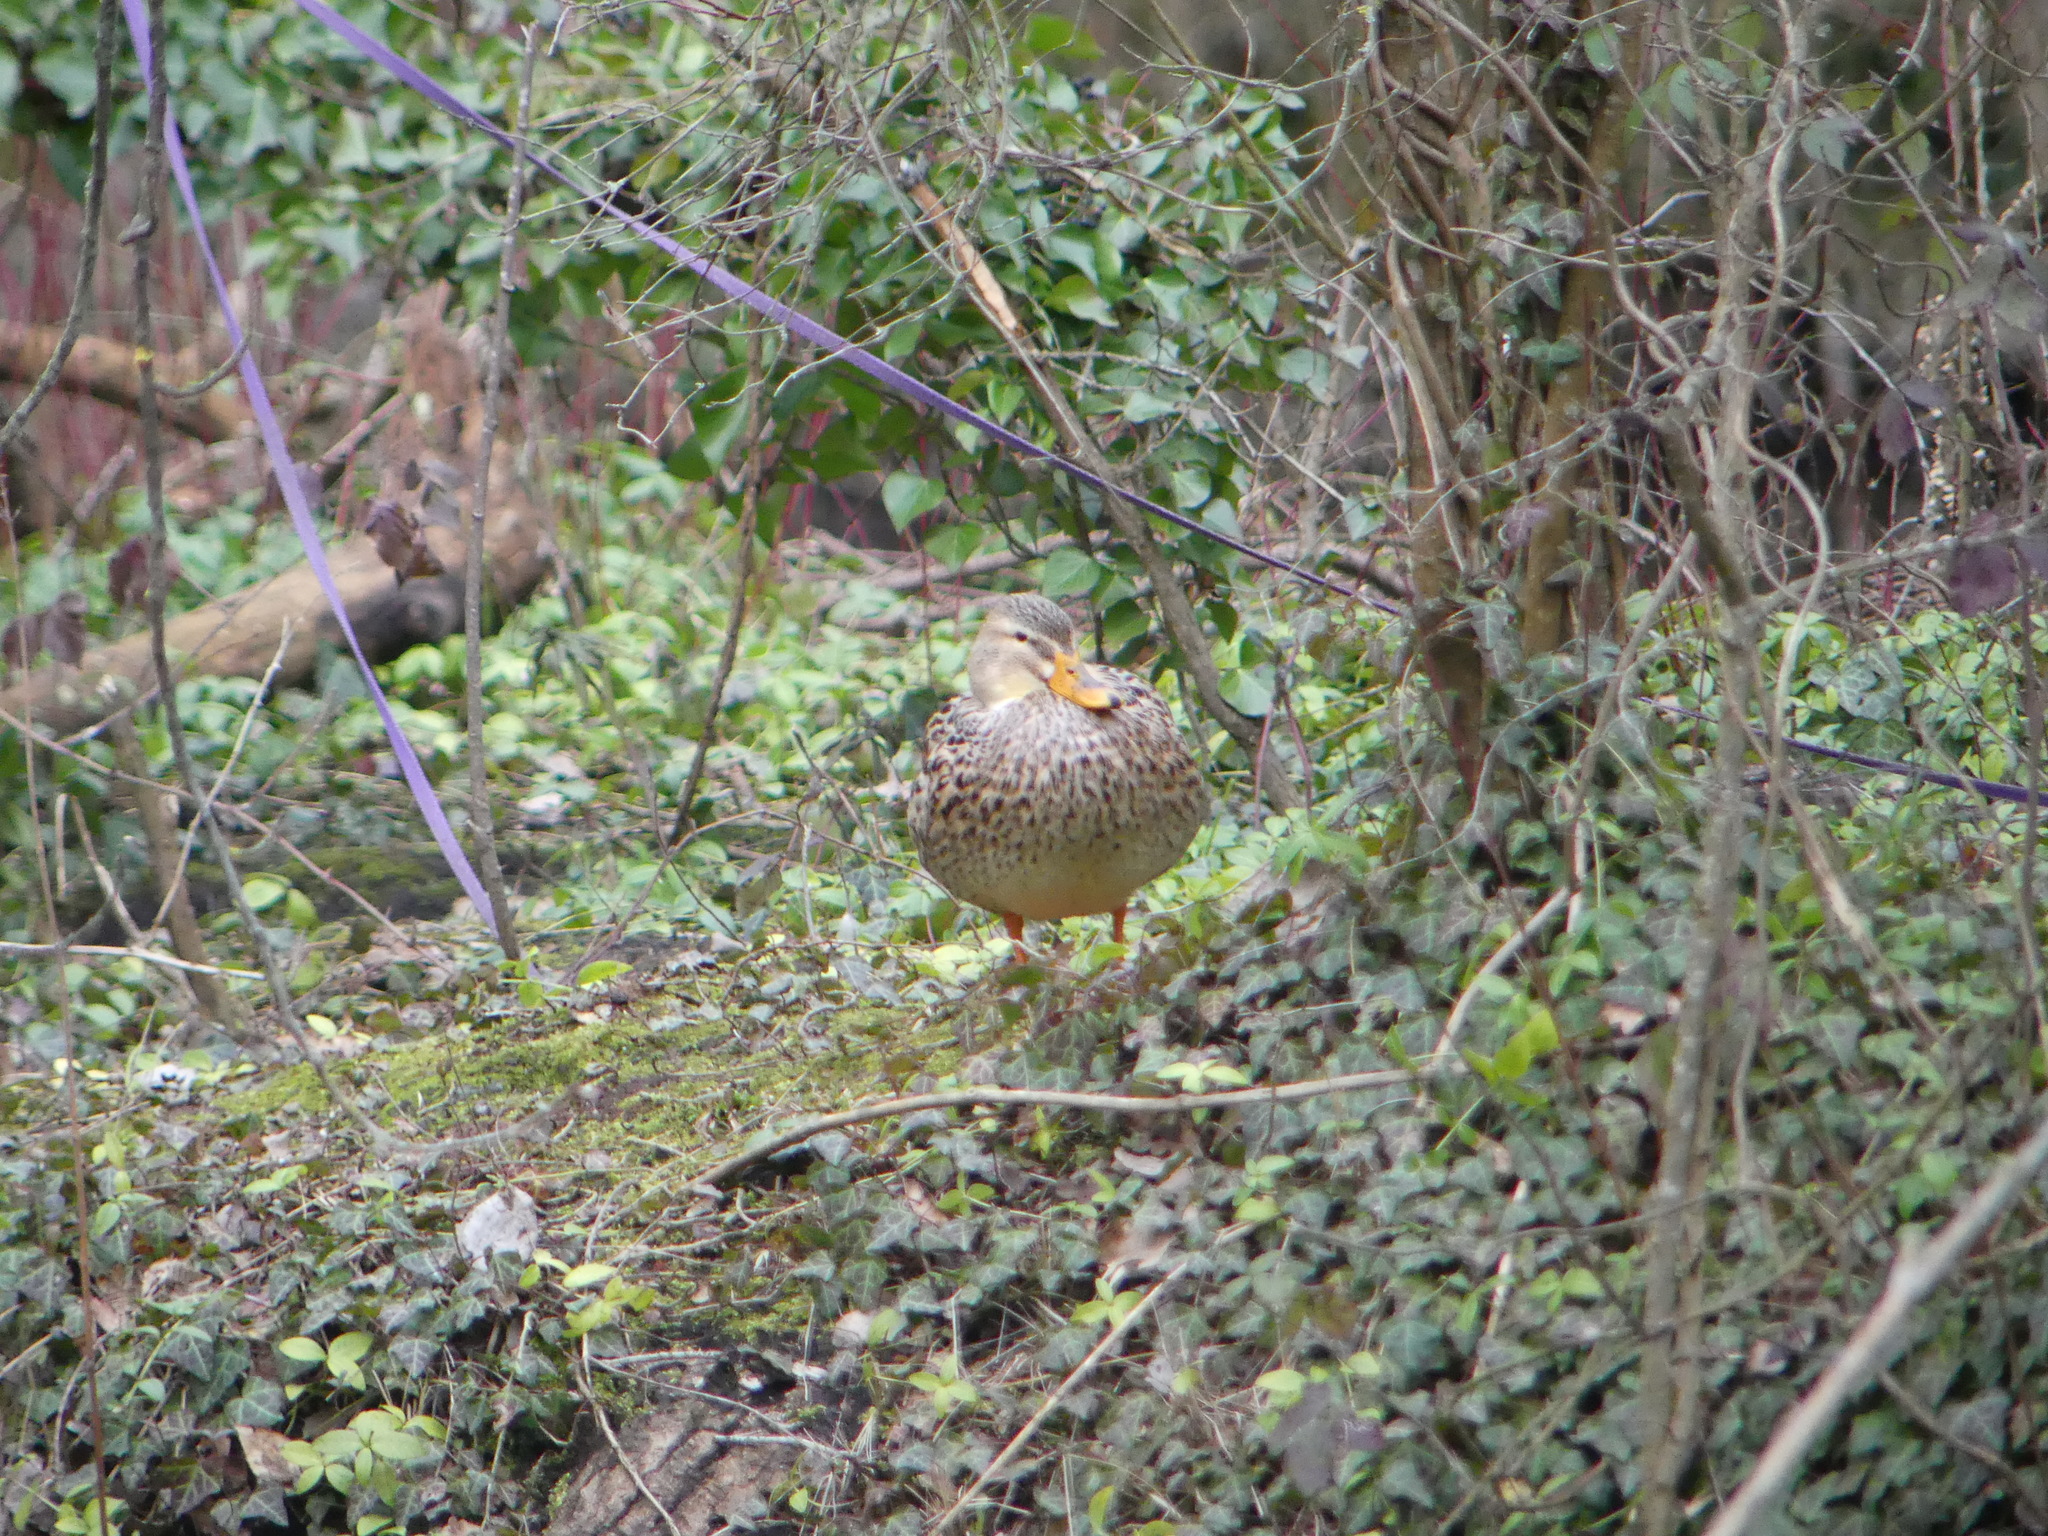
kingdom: Animalia
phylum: Chordata
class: Aves
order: Anseriformes
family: Anatidae
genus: Anas
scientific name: Anas platyrhynchos
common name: Mallard
